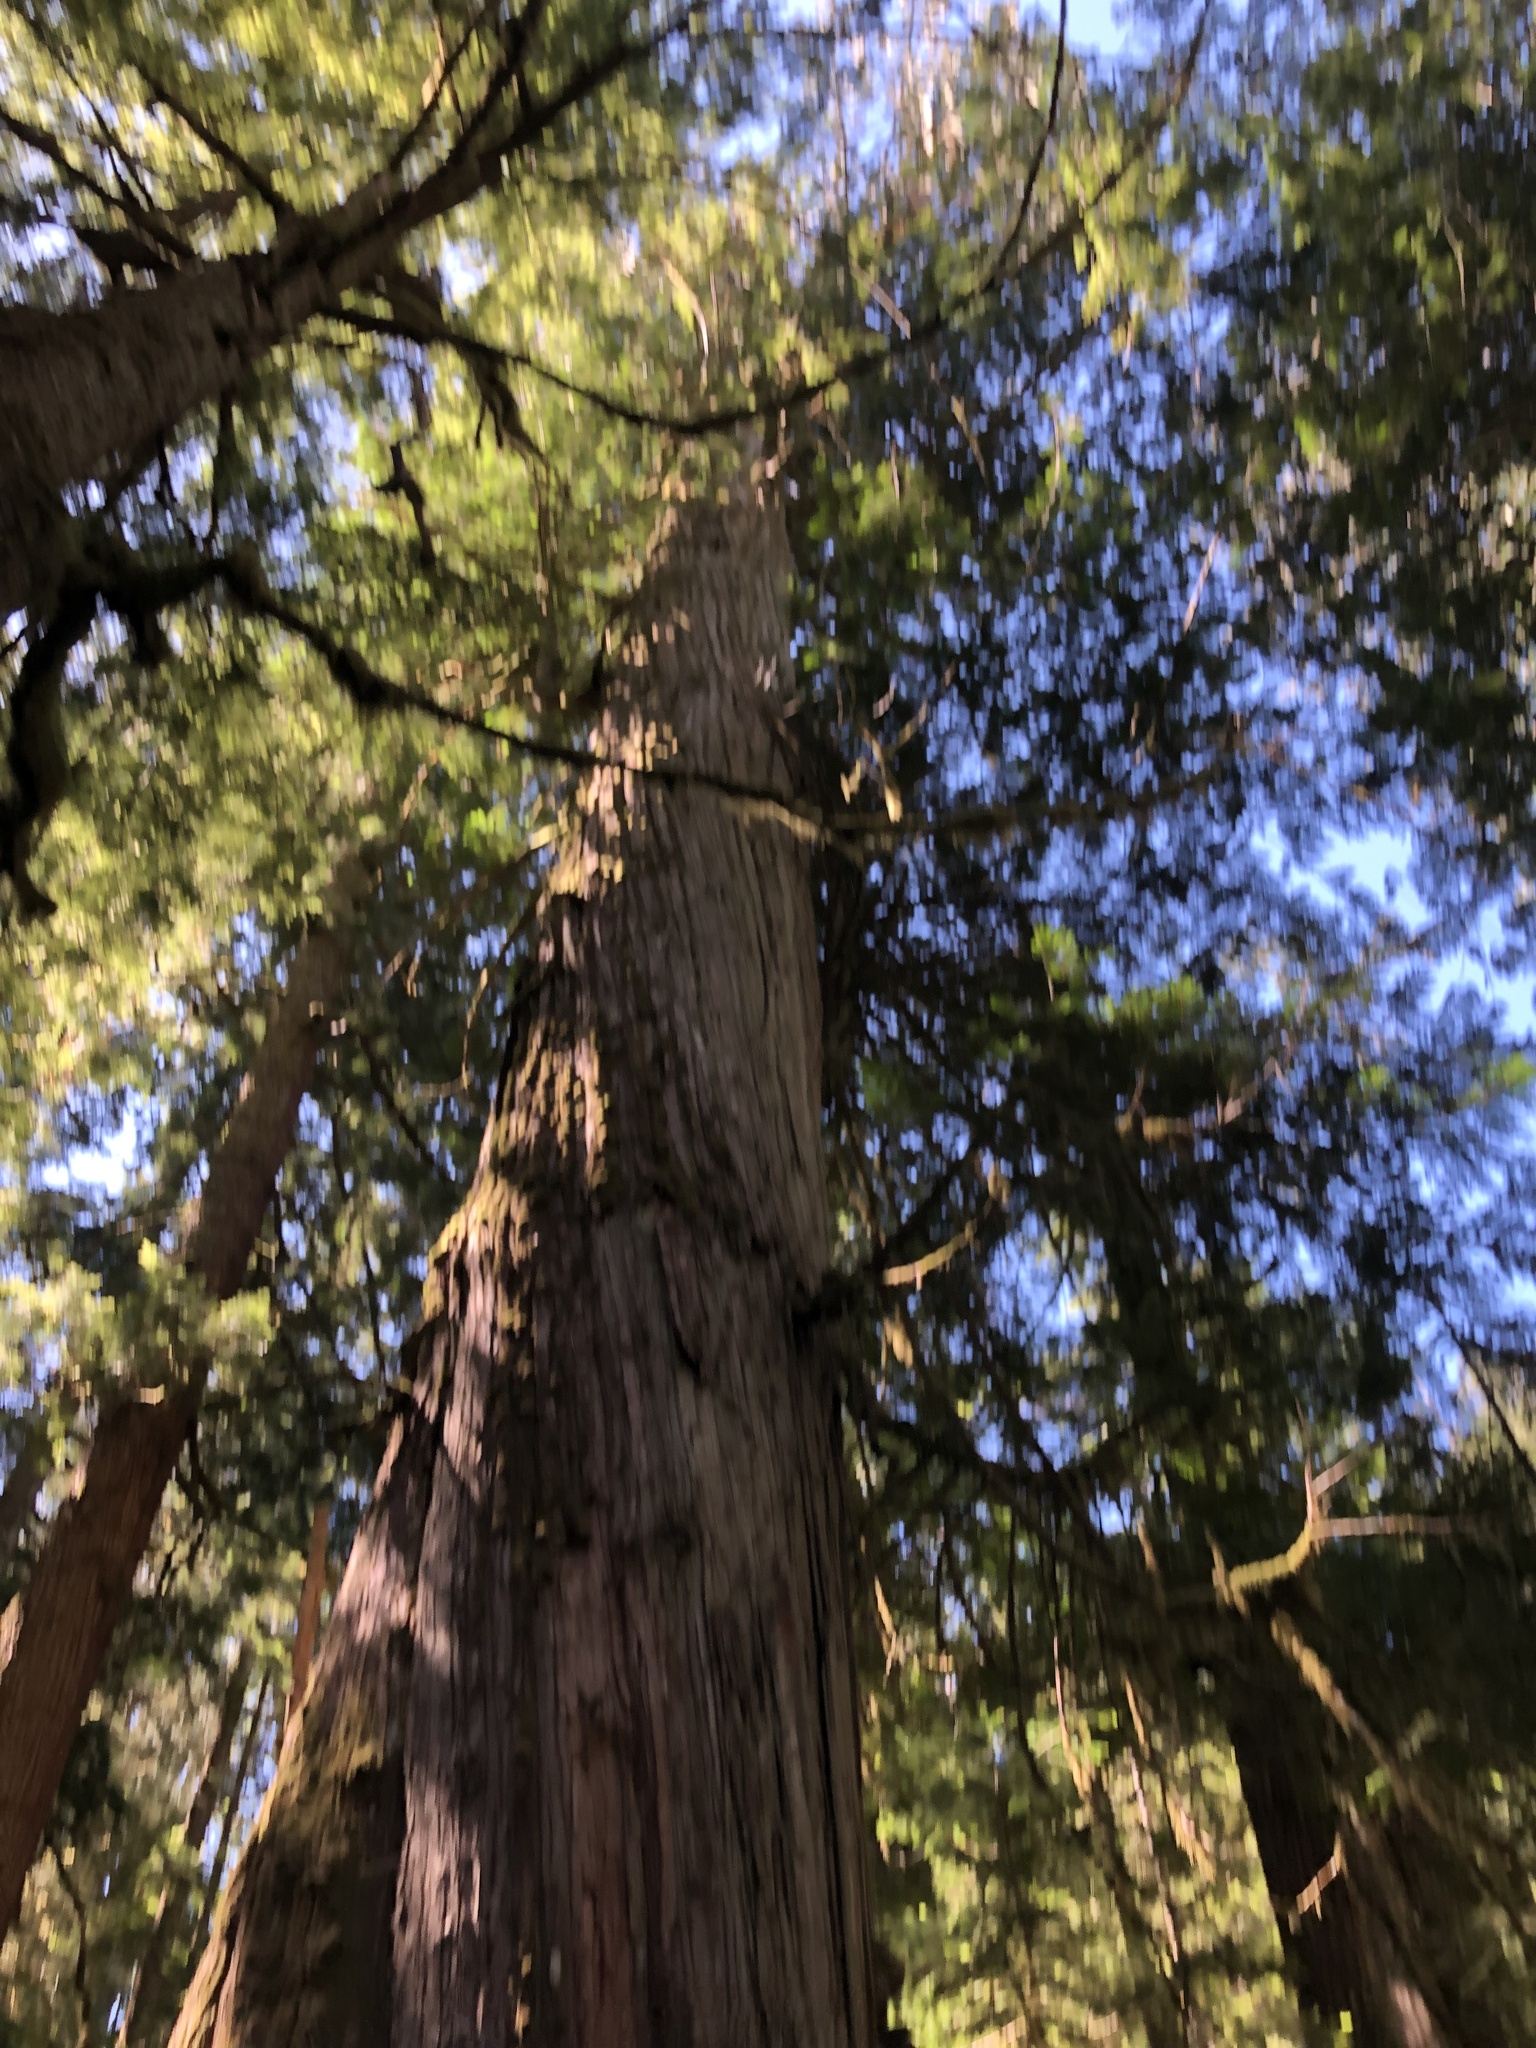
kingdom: Plantae
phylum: Tracheophyta
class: Pinopsida
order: Pinales
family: Cupressaceae
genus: Thuja
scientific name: Thuja plicata
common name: Western red-cedar
